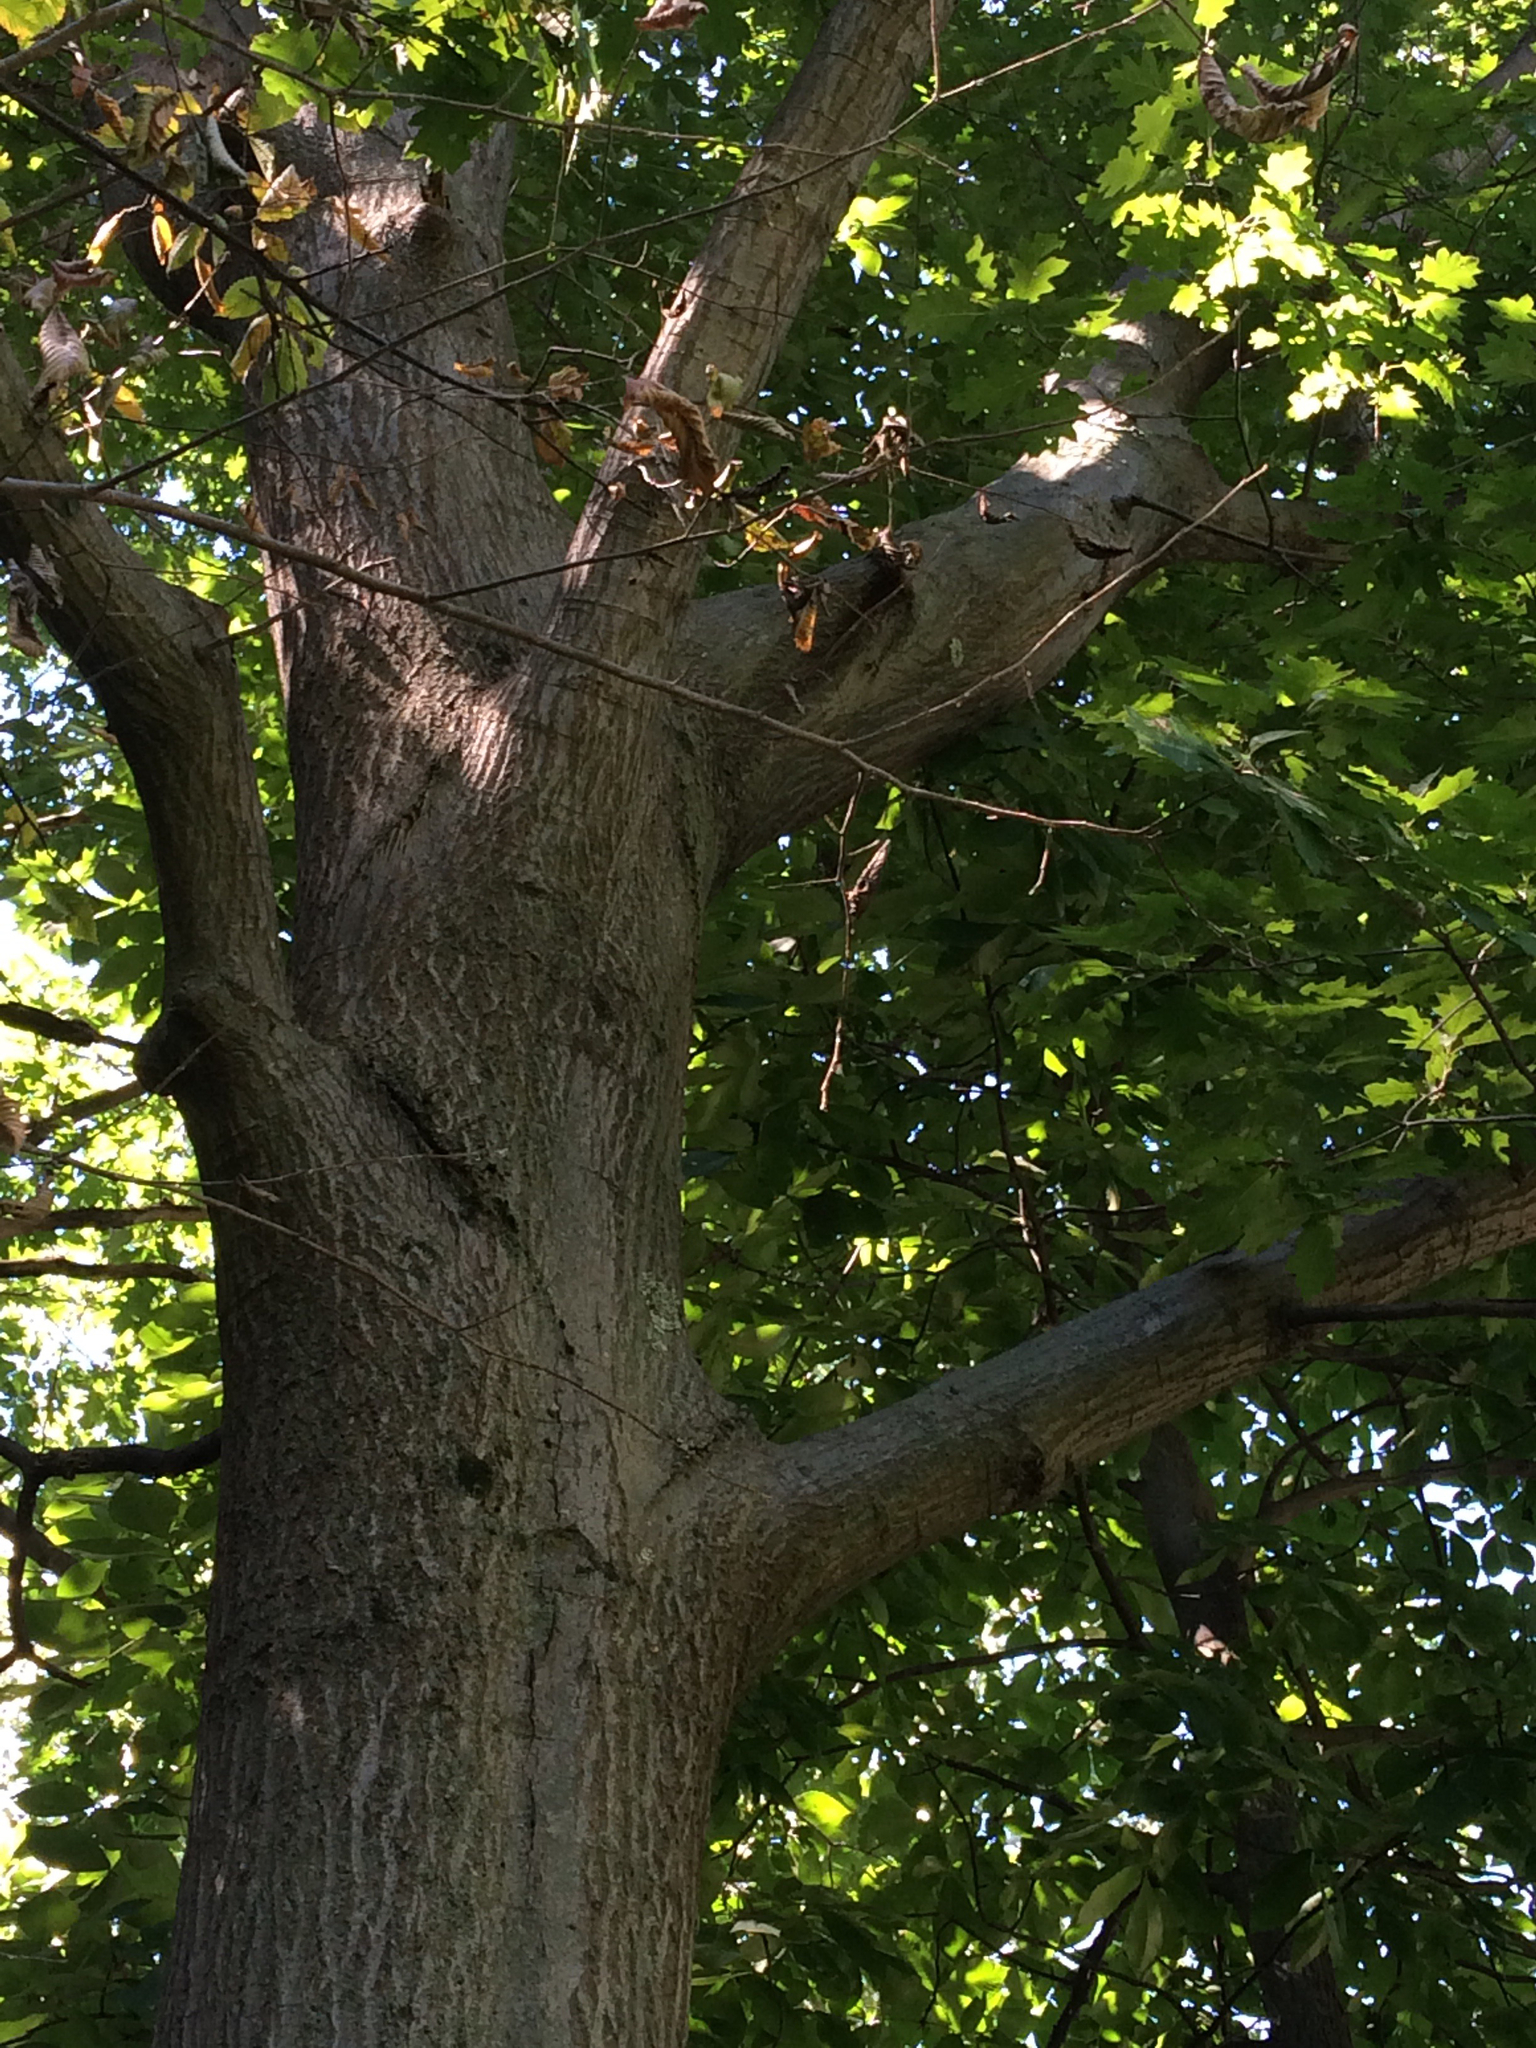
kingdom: Plantae
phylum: Tracheophyta
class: Magnoliopsida
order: Fagales
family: Fagaceae
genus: Quercus
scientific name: Quercus rubra
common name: Red oak
